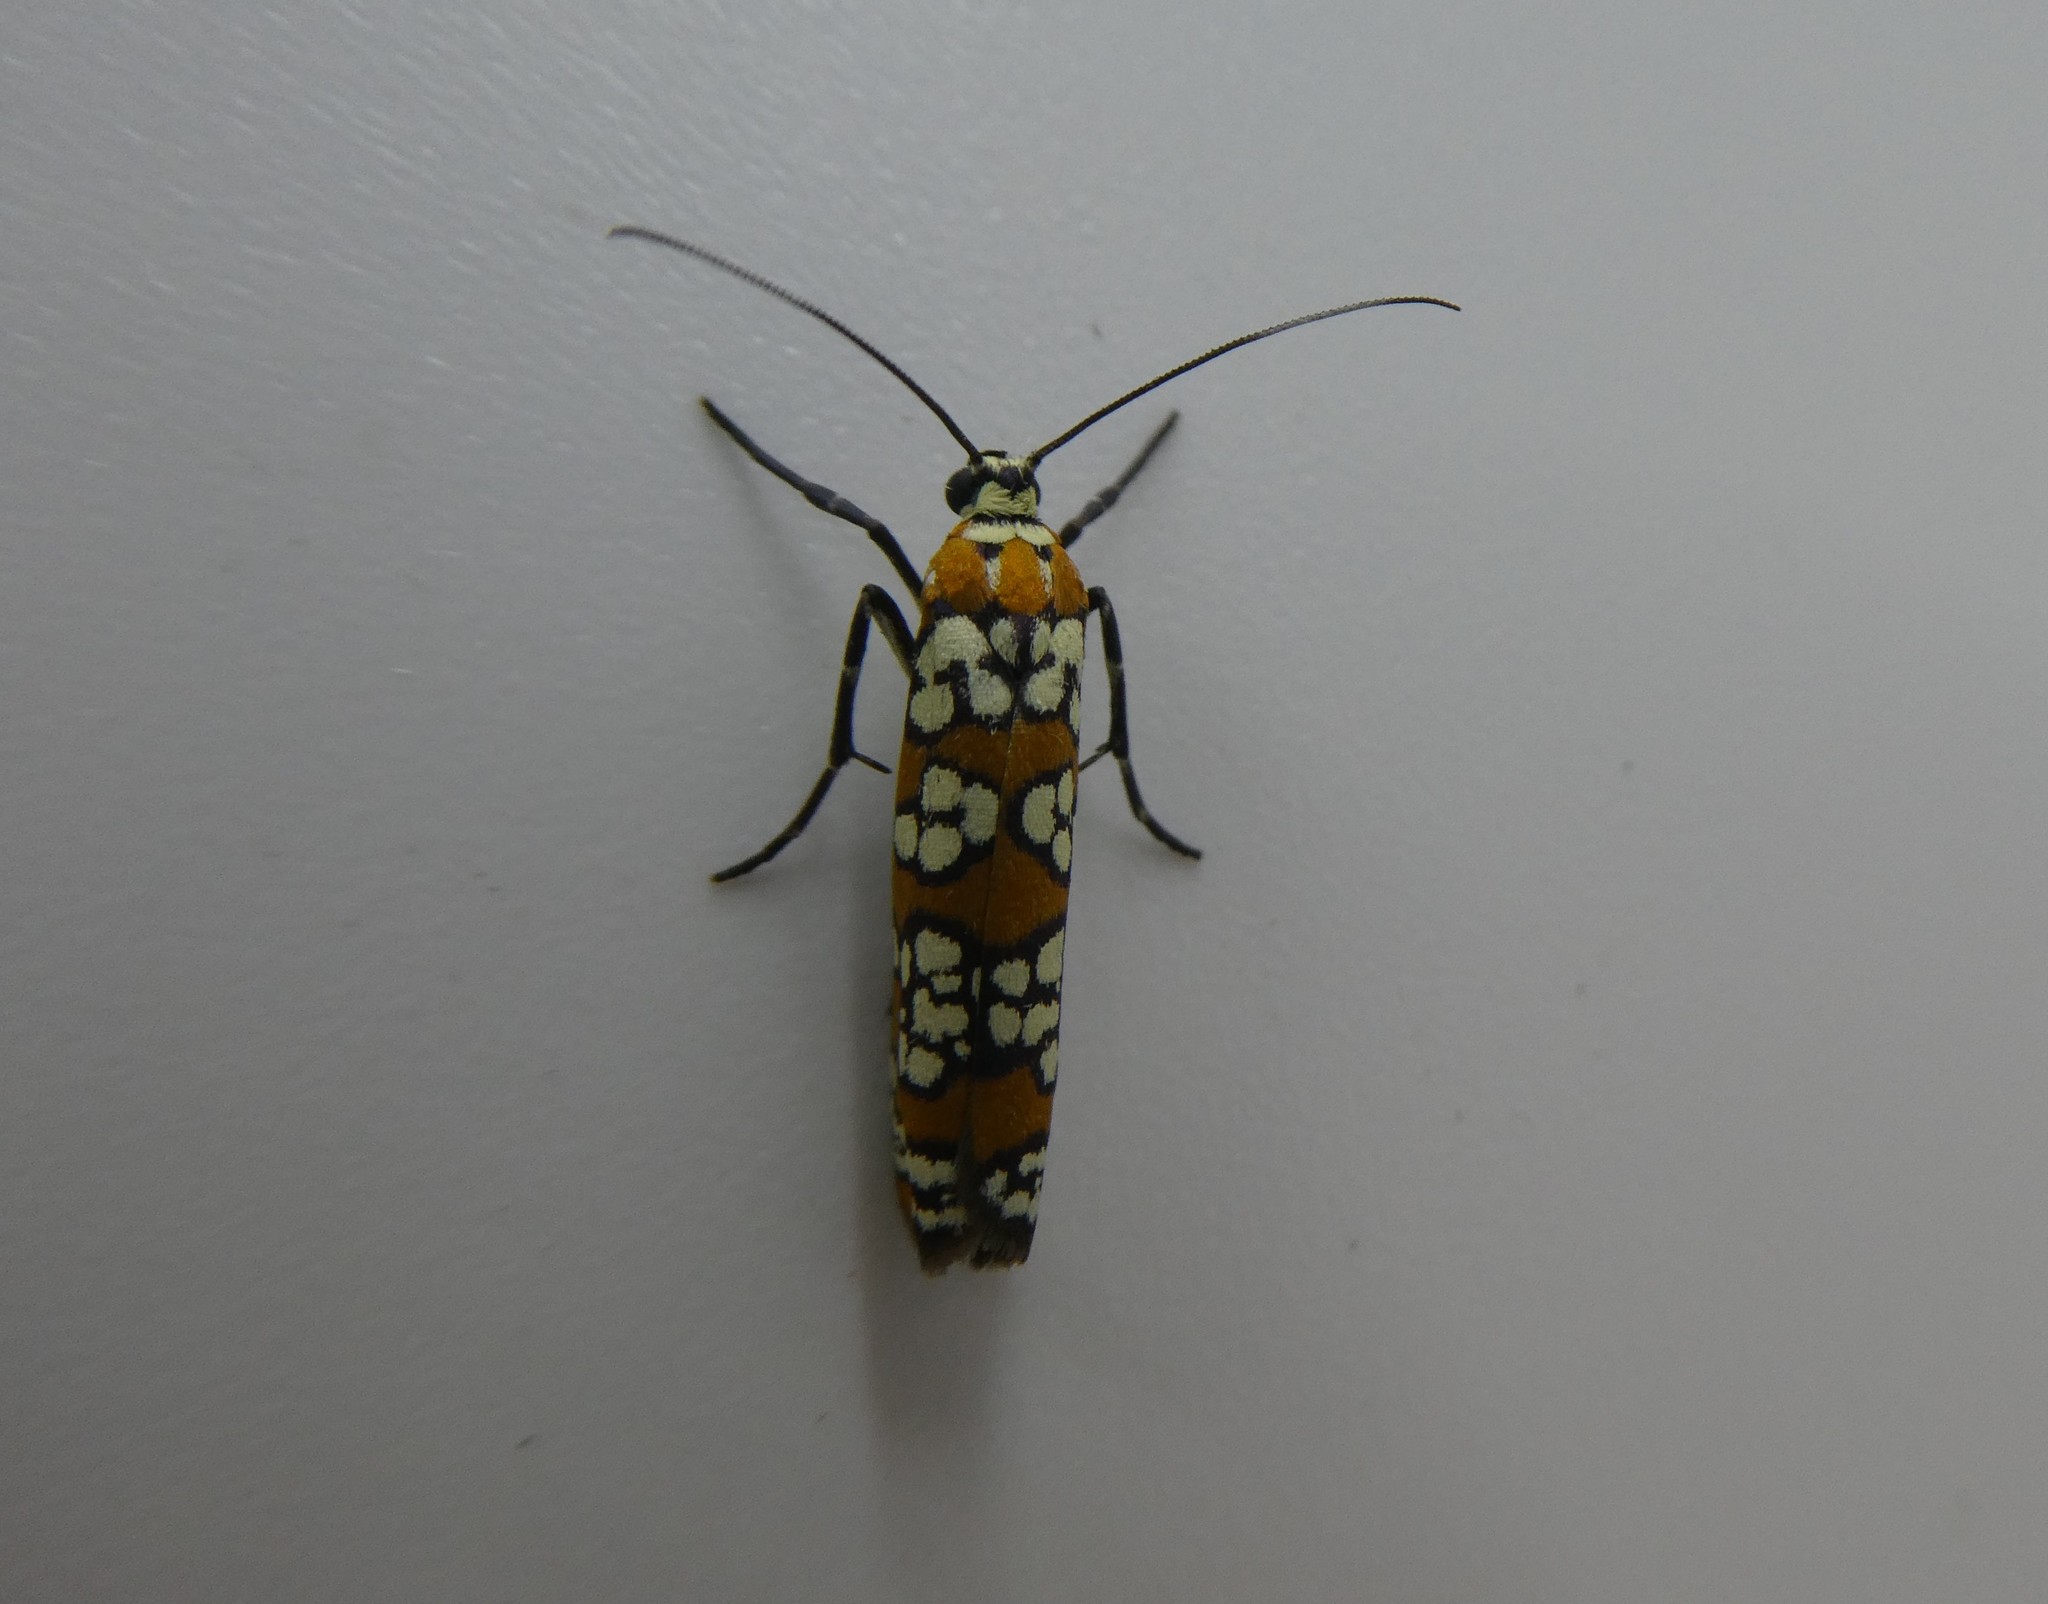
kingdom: Animalia
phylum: Arthropoda
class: Insecta
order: Lepidoptera
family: Attevidae
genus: Atteva
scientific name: Atteva punctella
